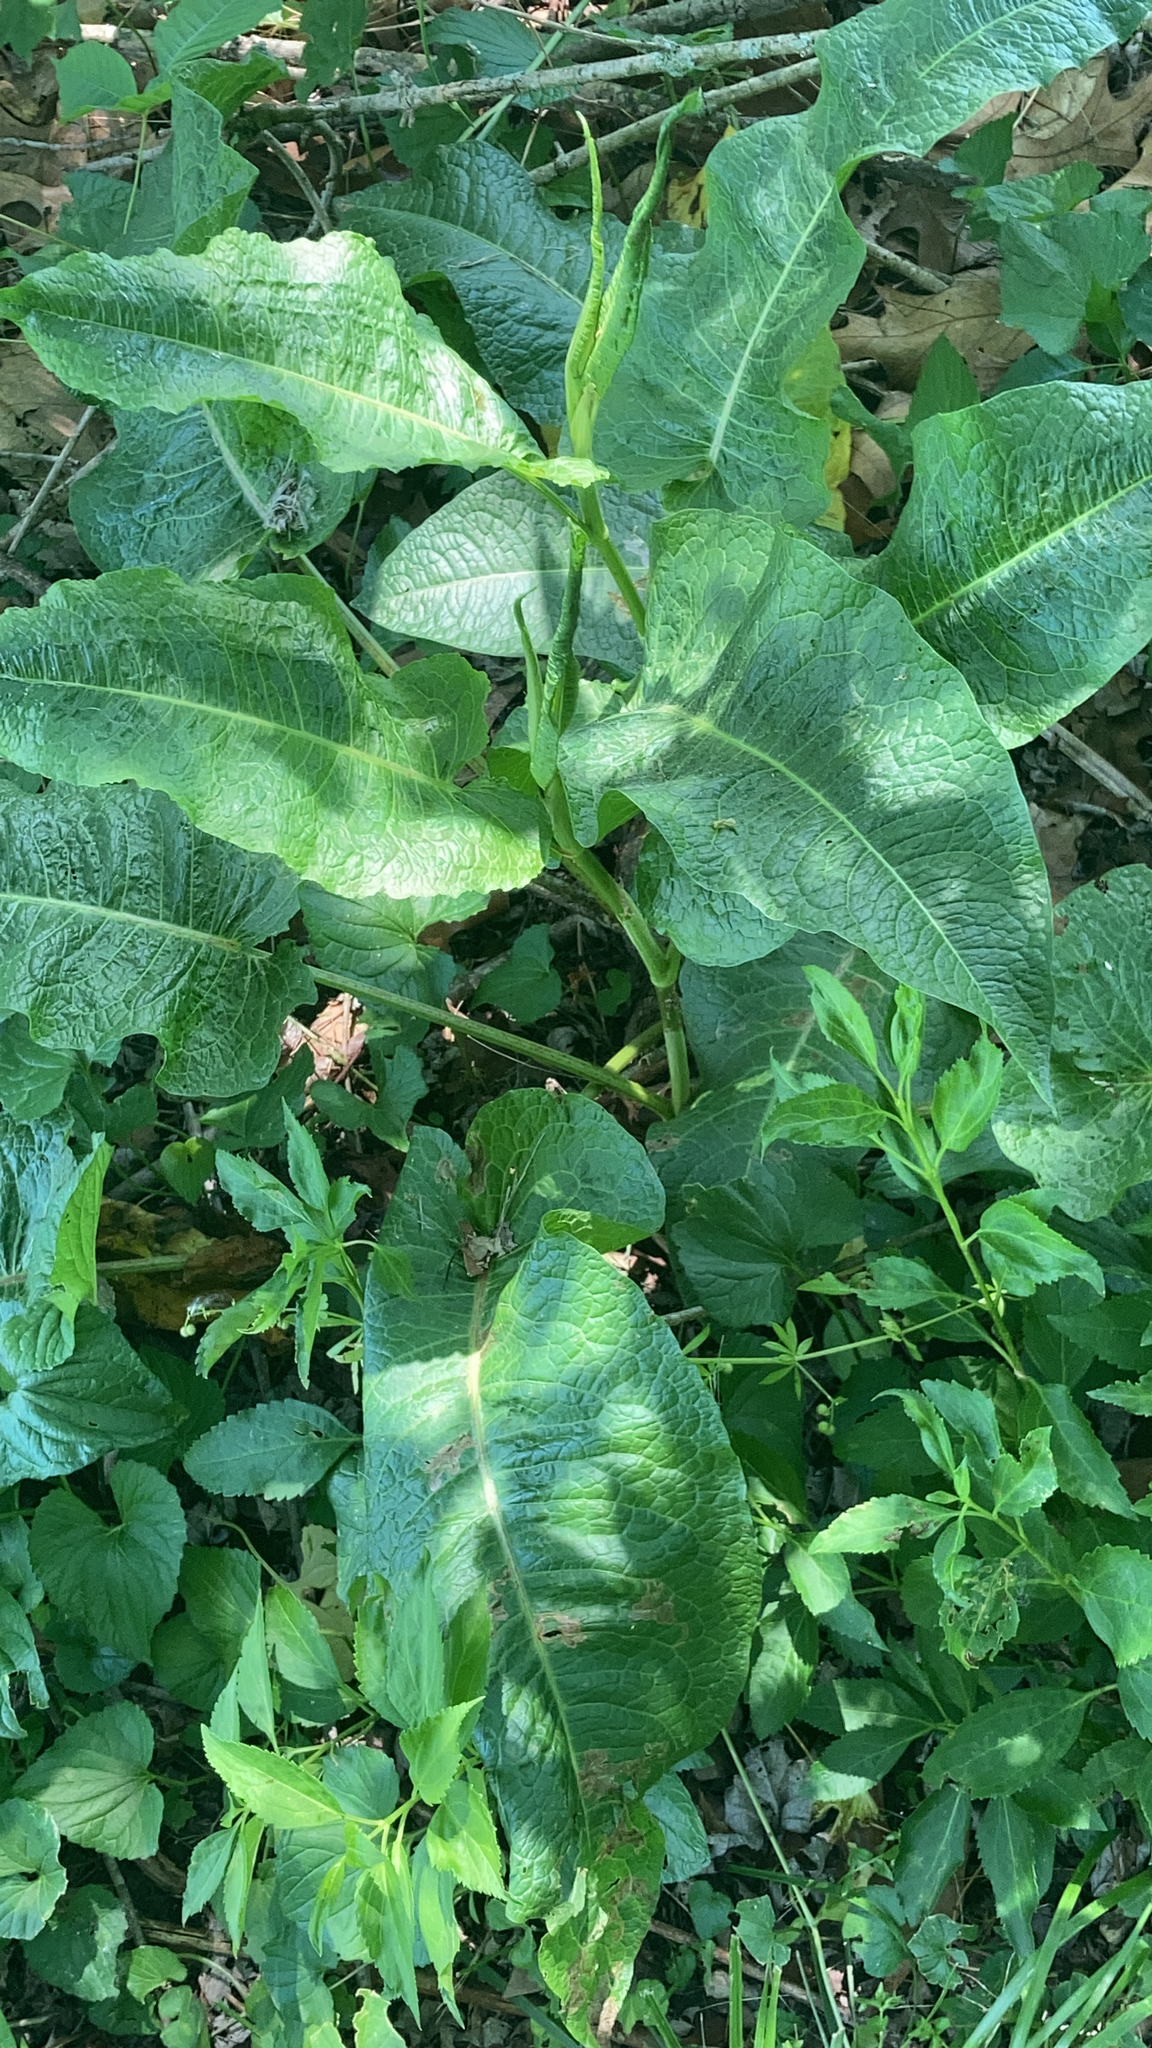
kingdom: Plantae
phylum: Tracheophyta
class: Magnoliopsida
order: Caryophyllales
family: Polygonaceae
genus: Rumex
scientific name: Rumex obtusifolius
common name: Bitter dock
